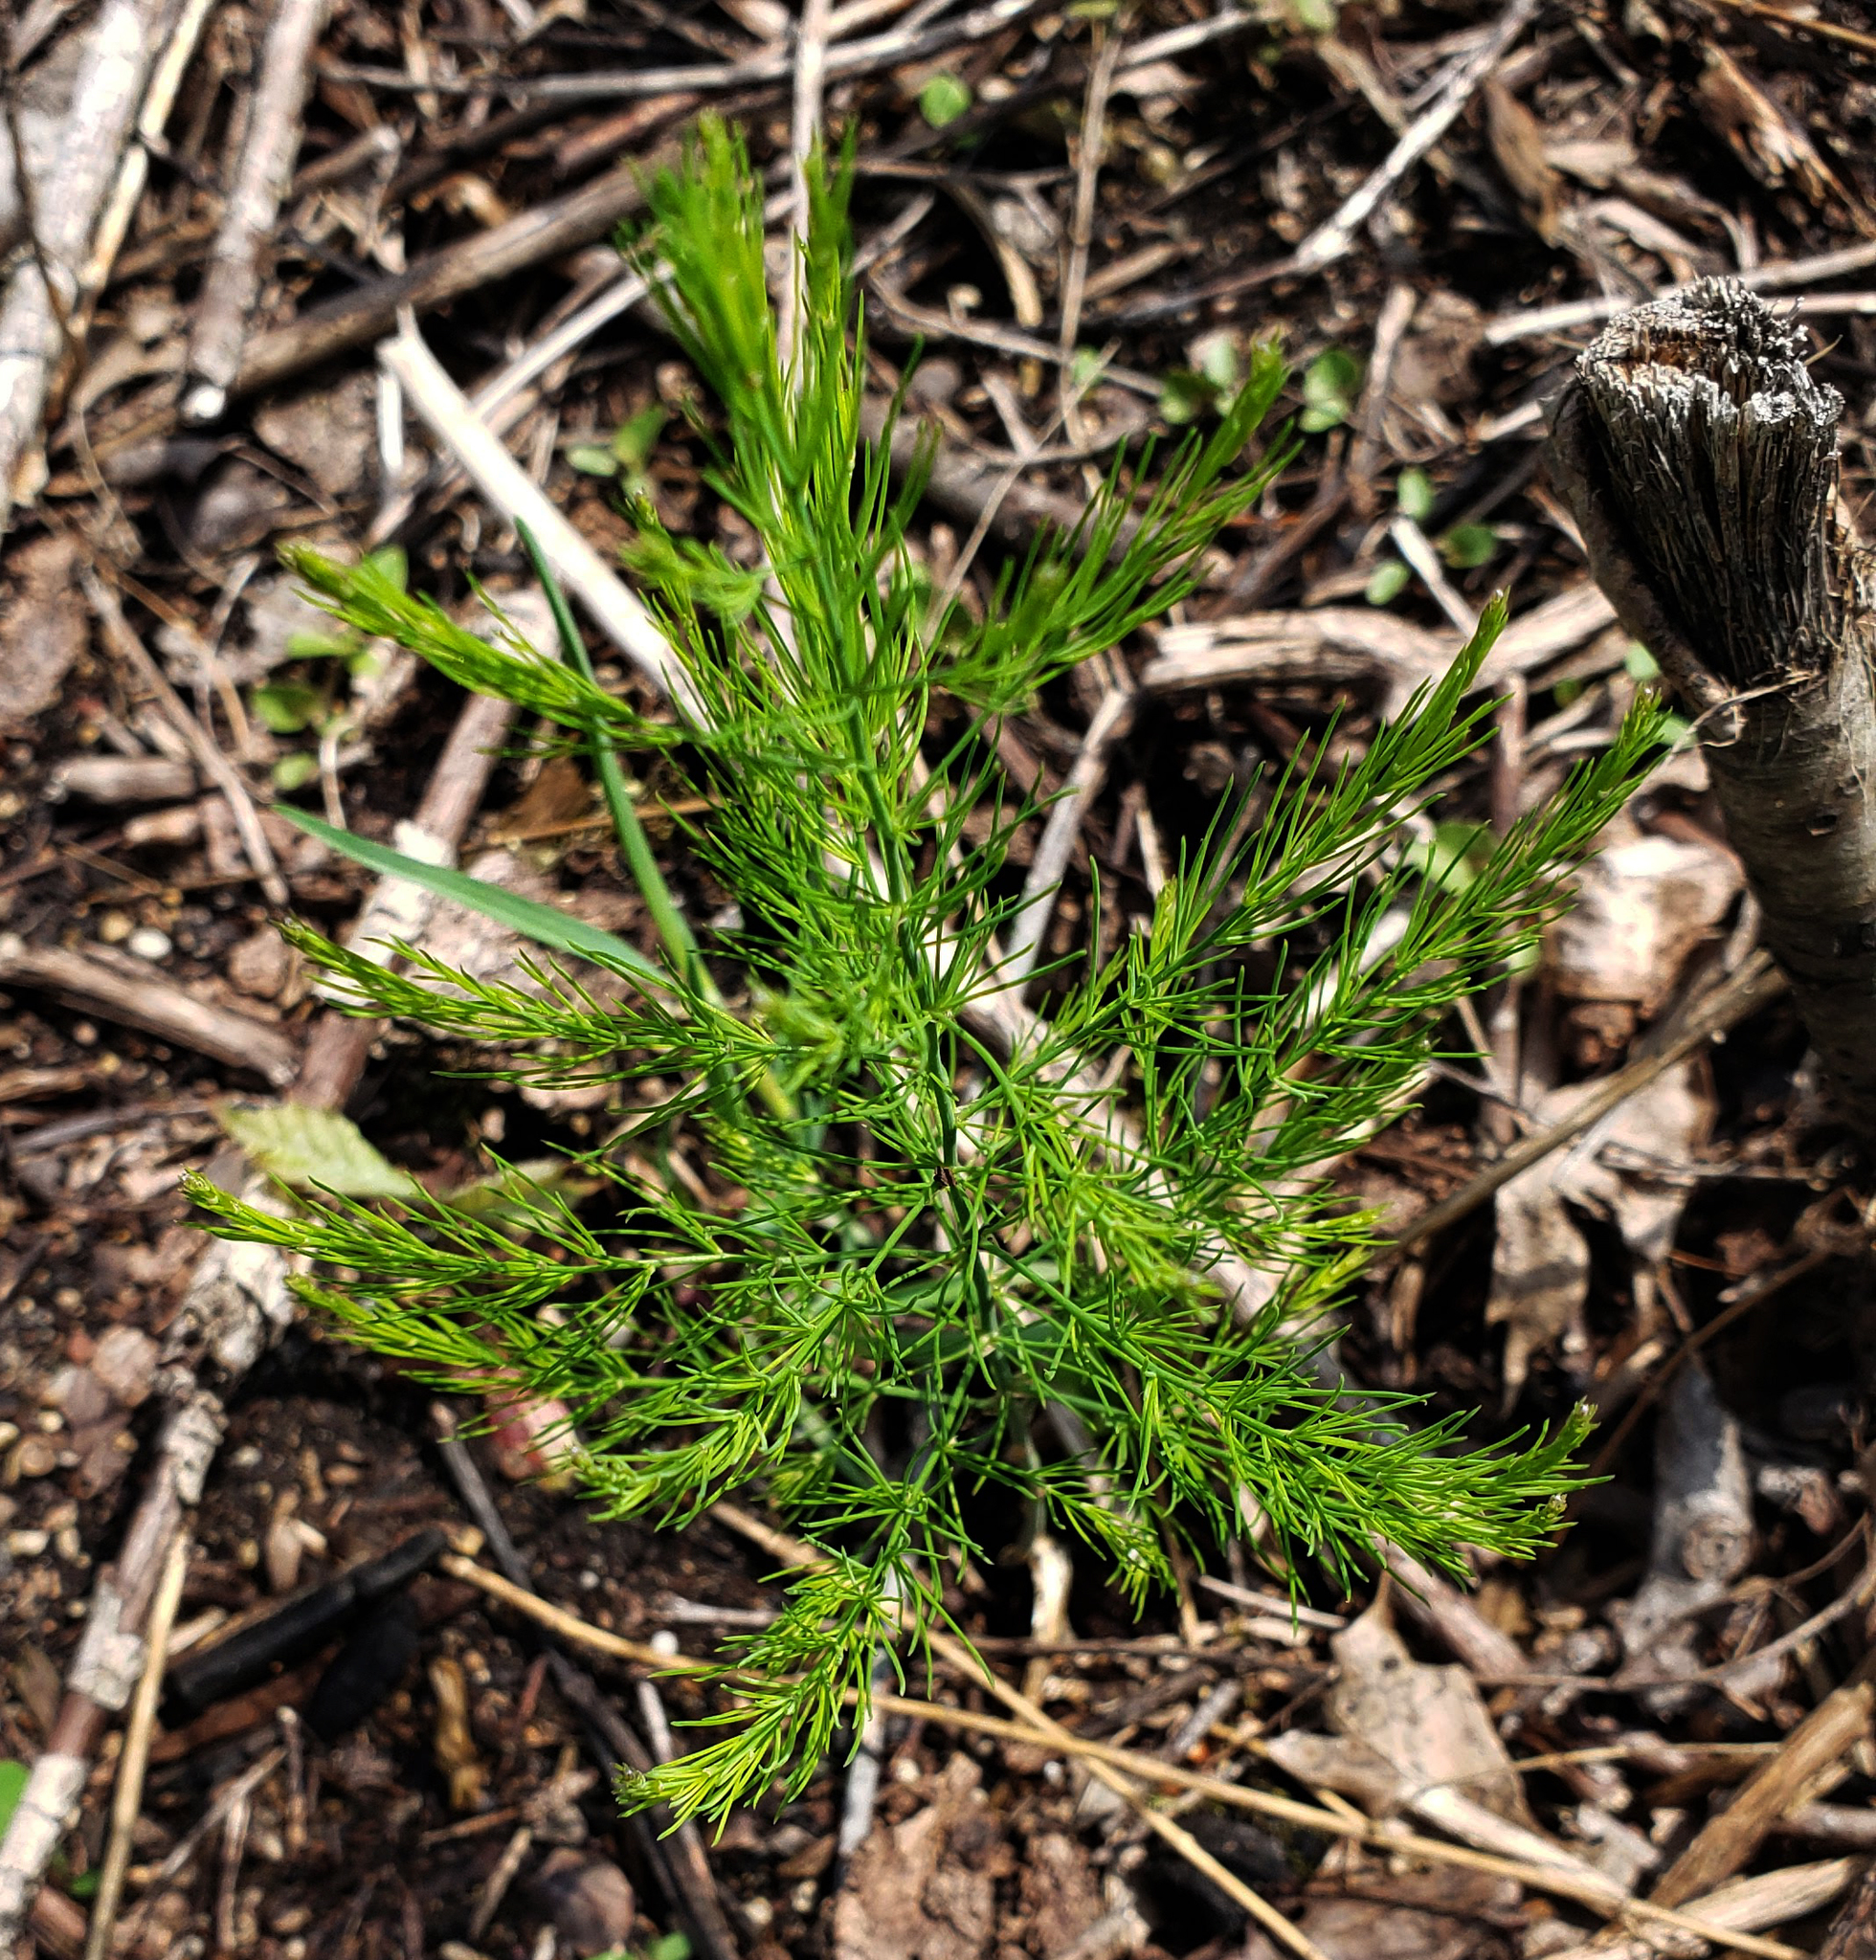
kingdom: Plantae
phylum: Tracheophyta
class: Liliopsida
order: Asparagales
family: Asparagaceae
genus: Asparagus
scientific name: Asparagus officinalis
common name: Garden asparagus
